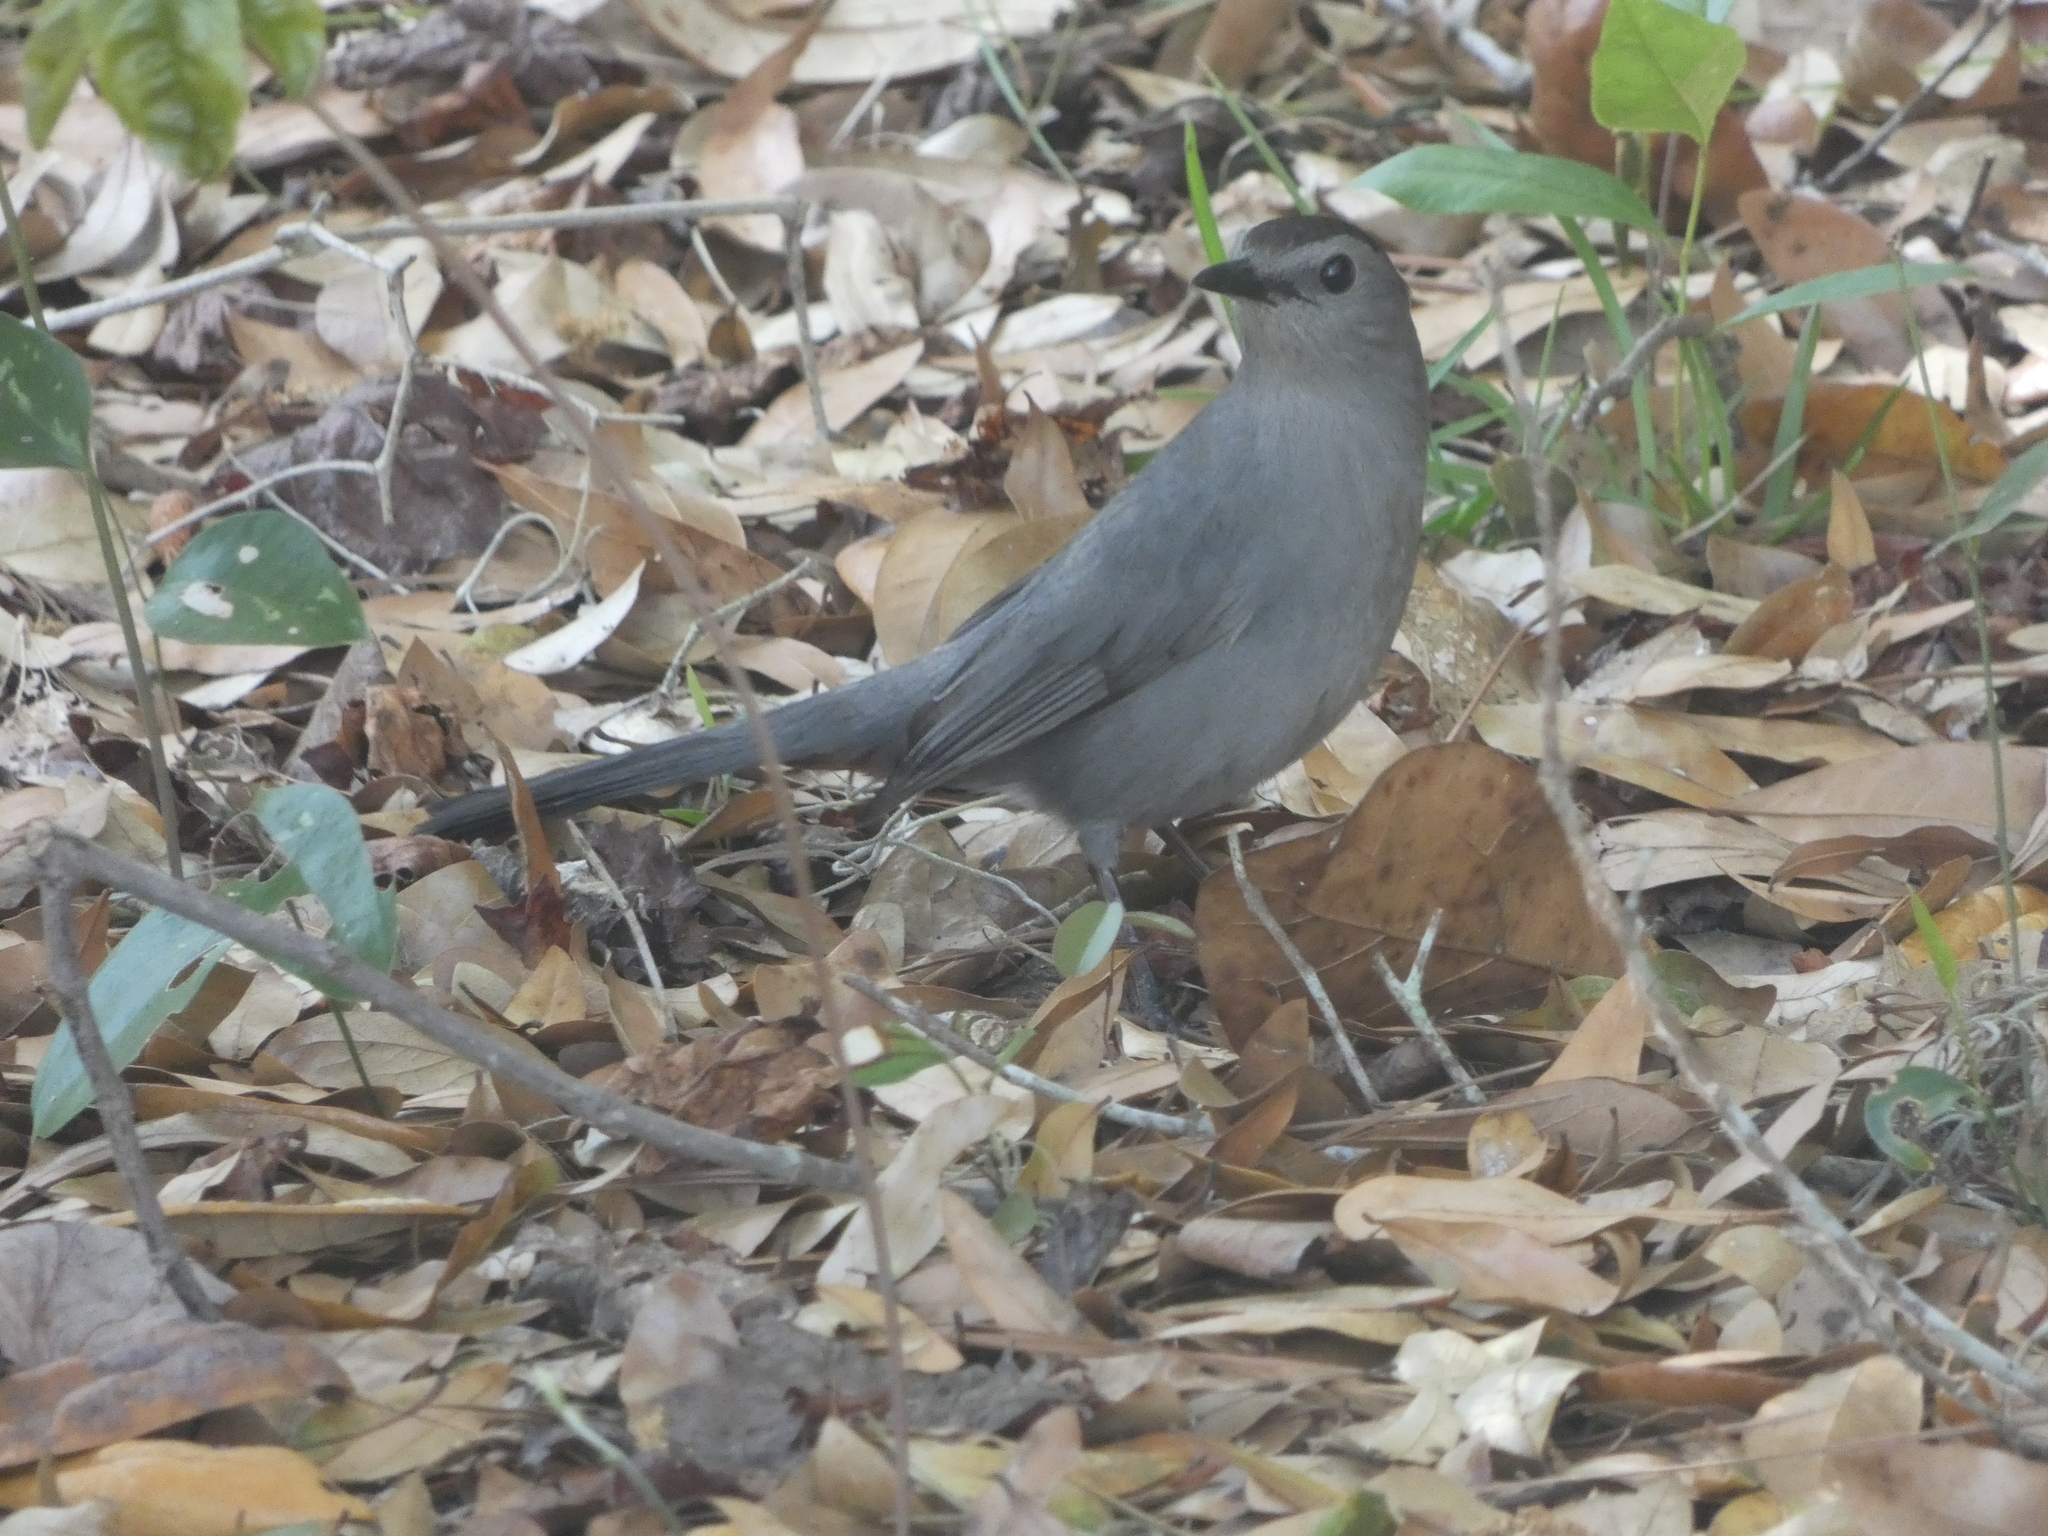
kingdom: Animalia
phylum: Chordata
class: Aves
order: Passeriformes
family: Mimidae
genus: Dumetella
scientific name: Dumetella carolinensis
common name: Gray catbird
